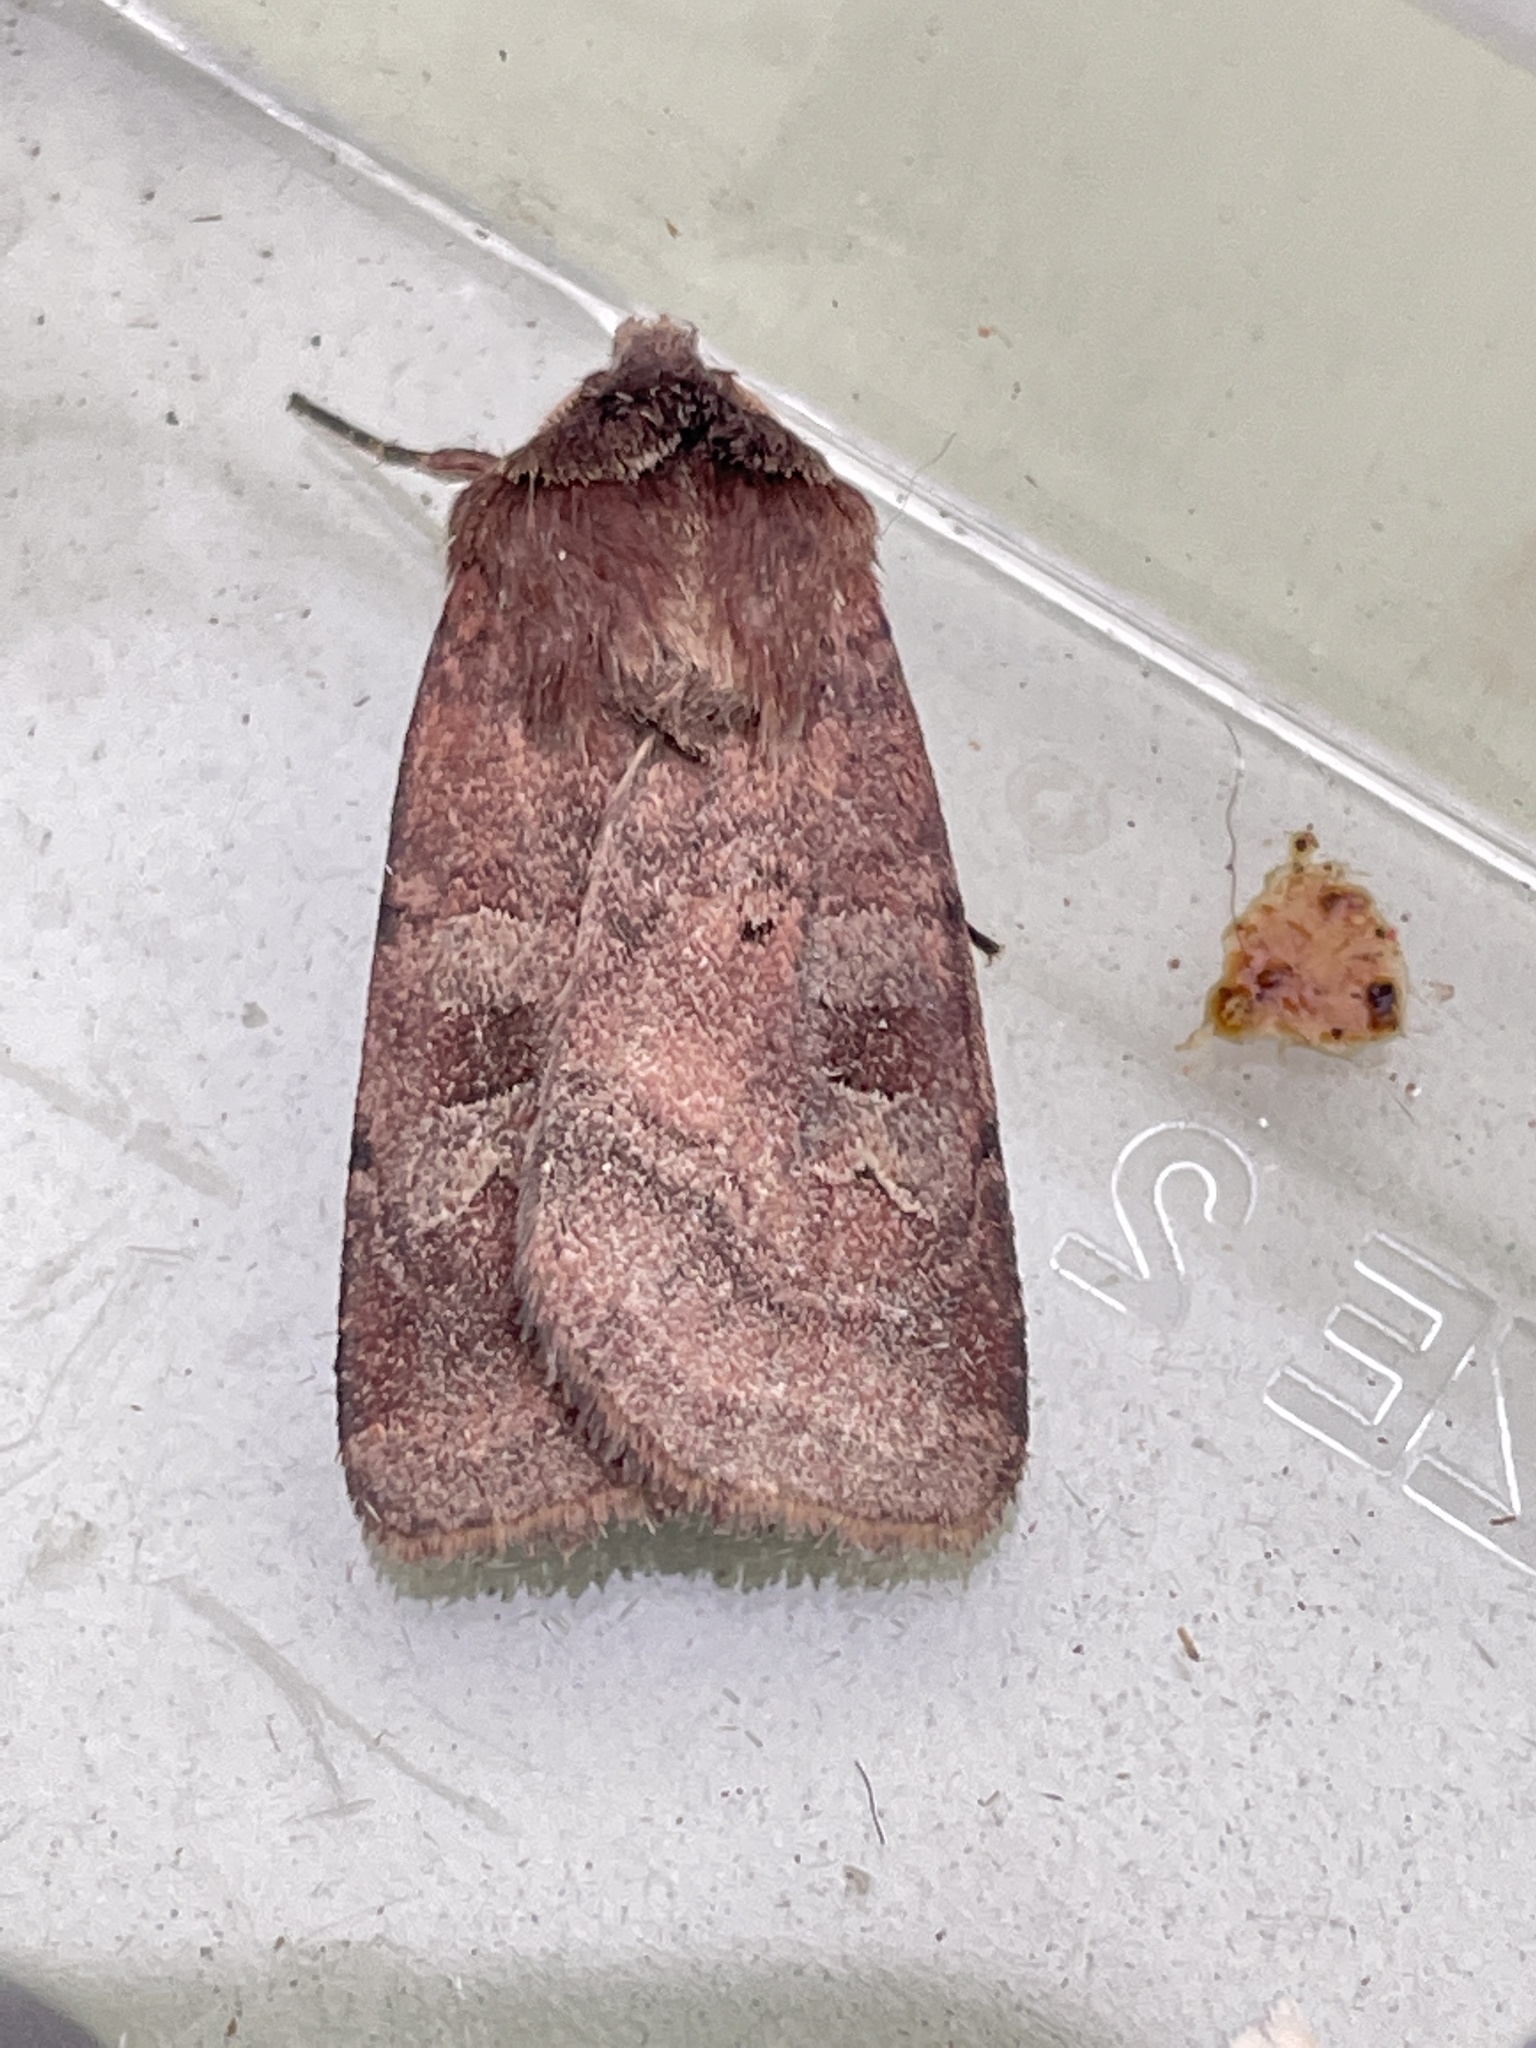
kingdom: Animalia
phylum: Arthropoda
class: Insecta
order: Lepidoptera
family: Noctuidae
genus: Diarsia
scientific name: Diarsia rubi
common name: Small square-spot
